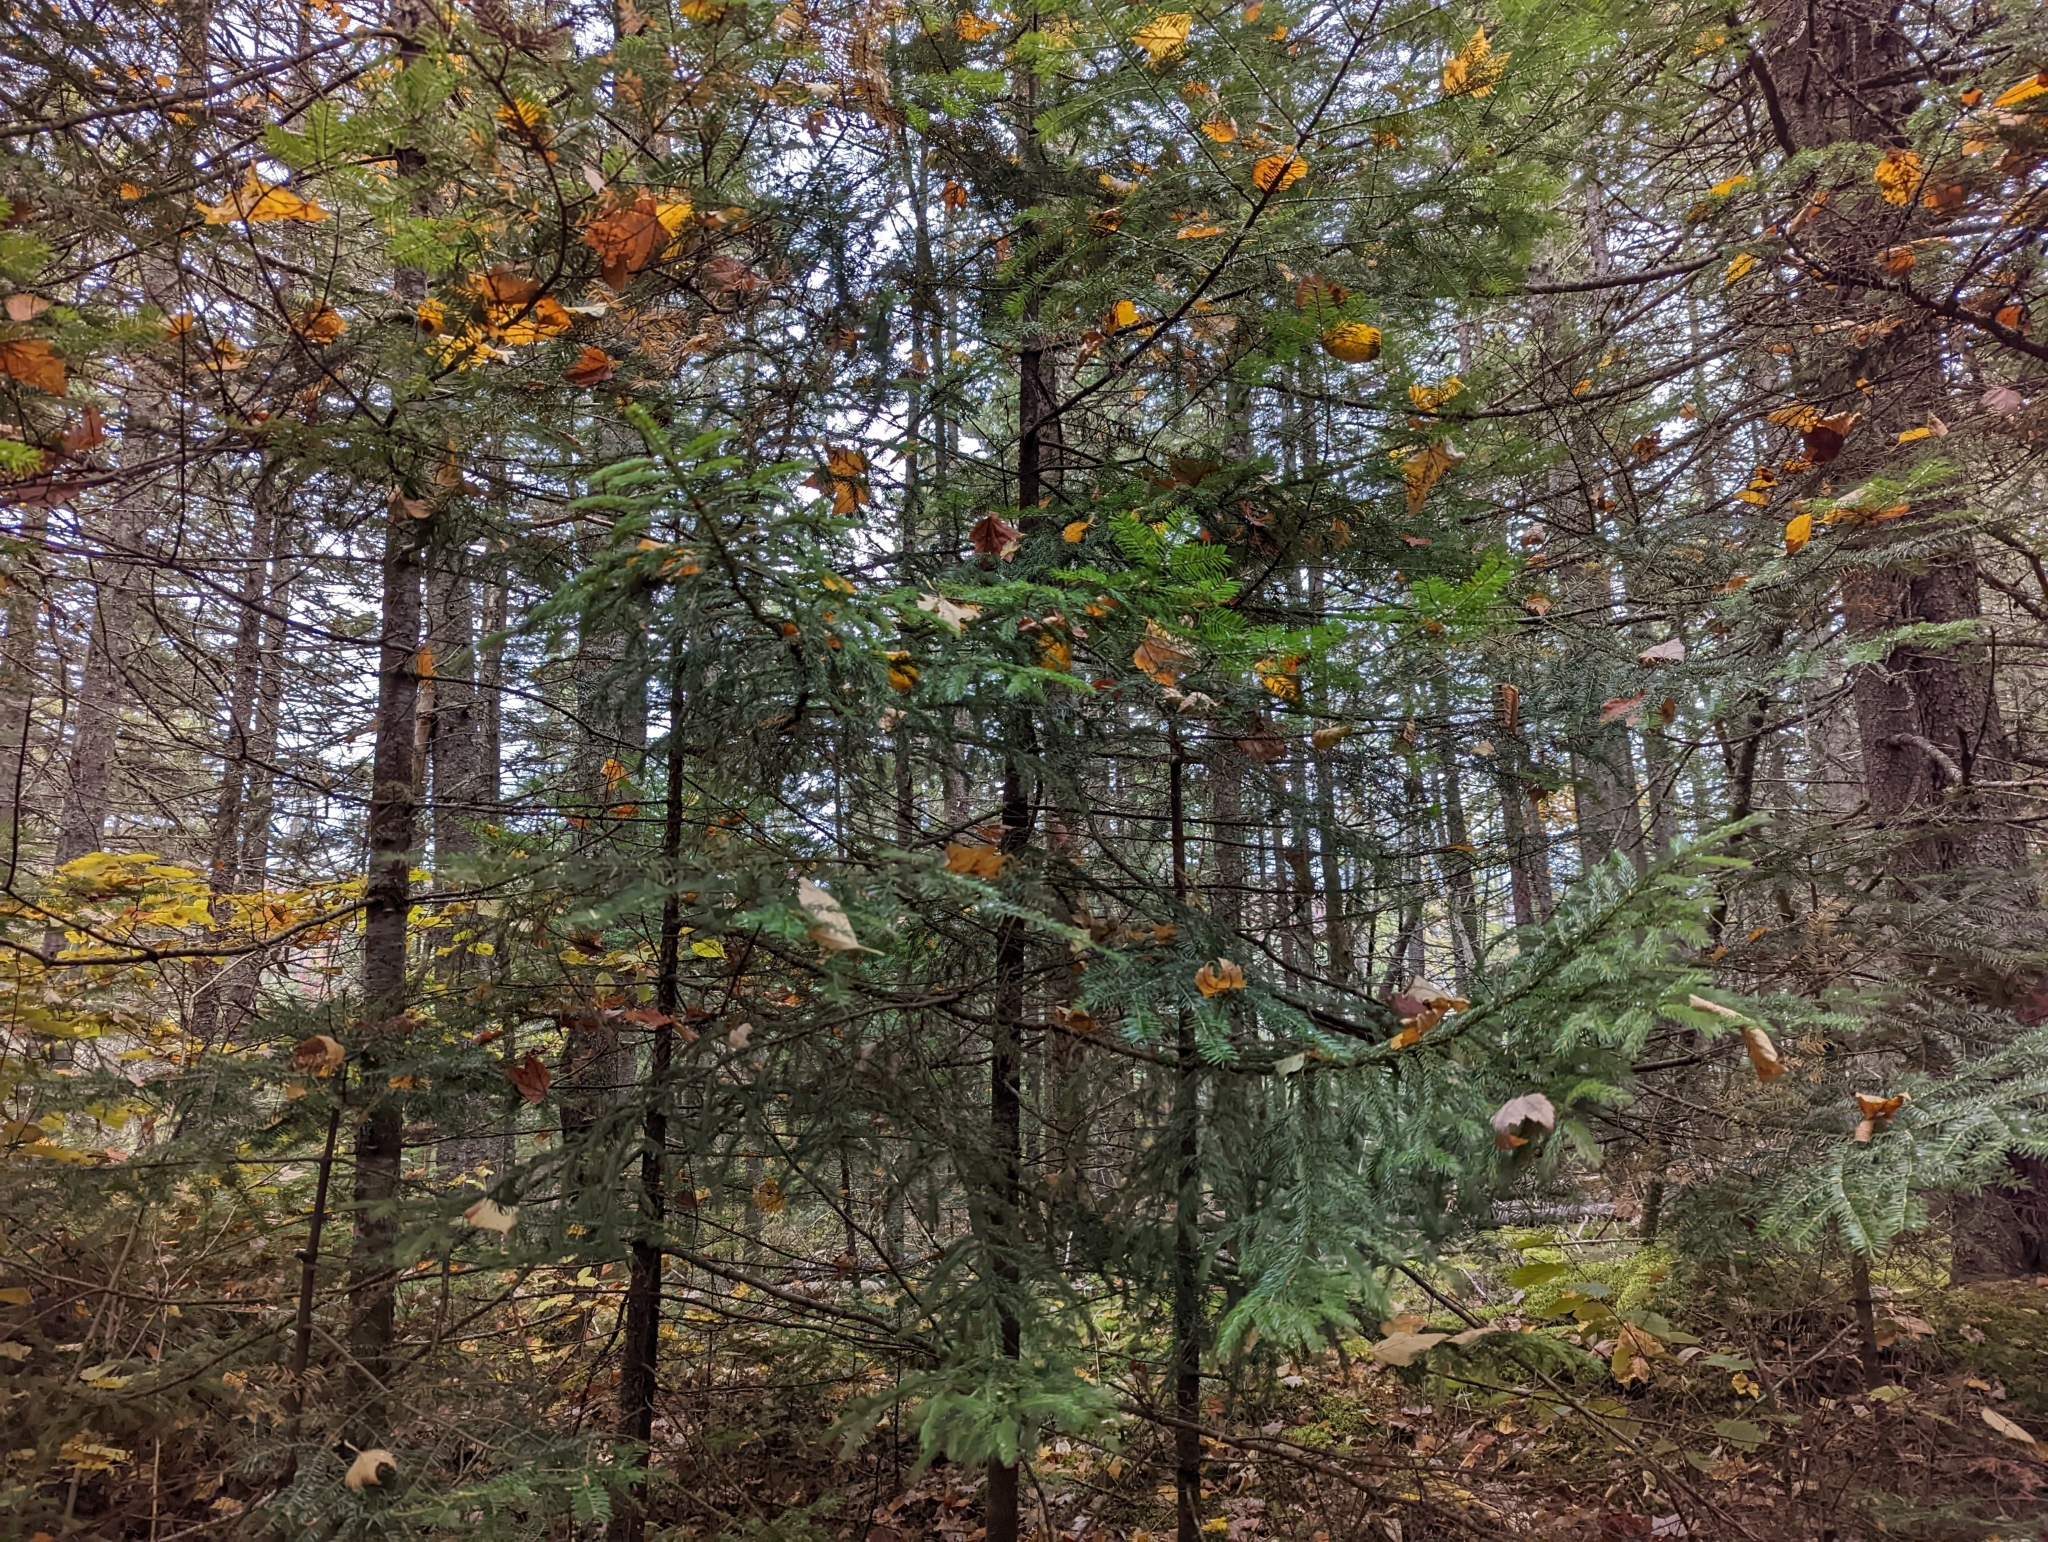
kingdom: Plantae
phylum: Tracheophyta
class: Pinopsida
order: Pinales
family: Pinaceae
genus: Picea
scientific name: Picea rubens
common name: Red spruce
